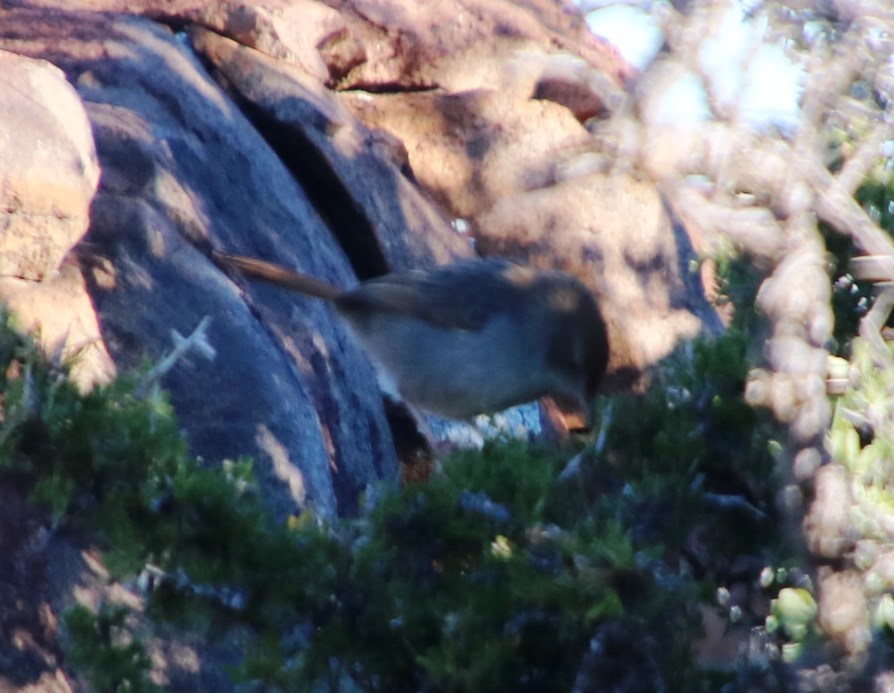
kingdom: Animalia
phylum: Chordata
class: Aves
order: Passeriformes
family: Cisticolidae
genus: Cisticola
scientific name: Cisticola fulvicapilla
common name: Neddicky
